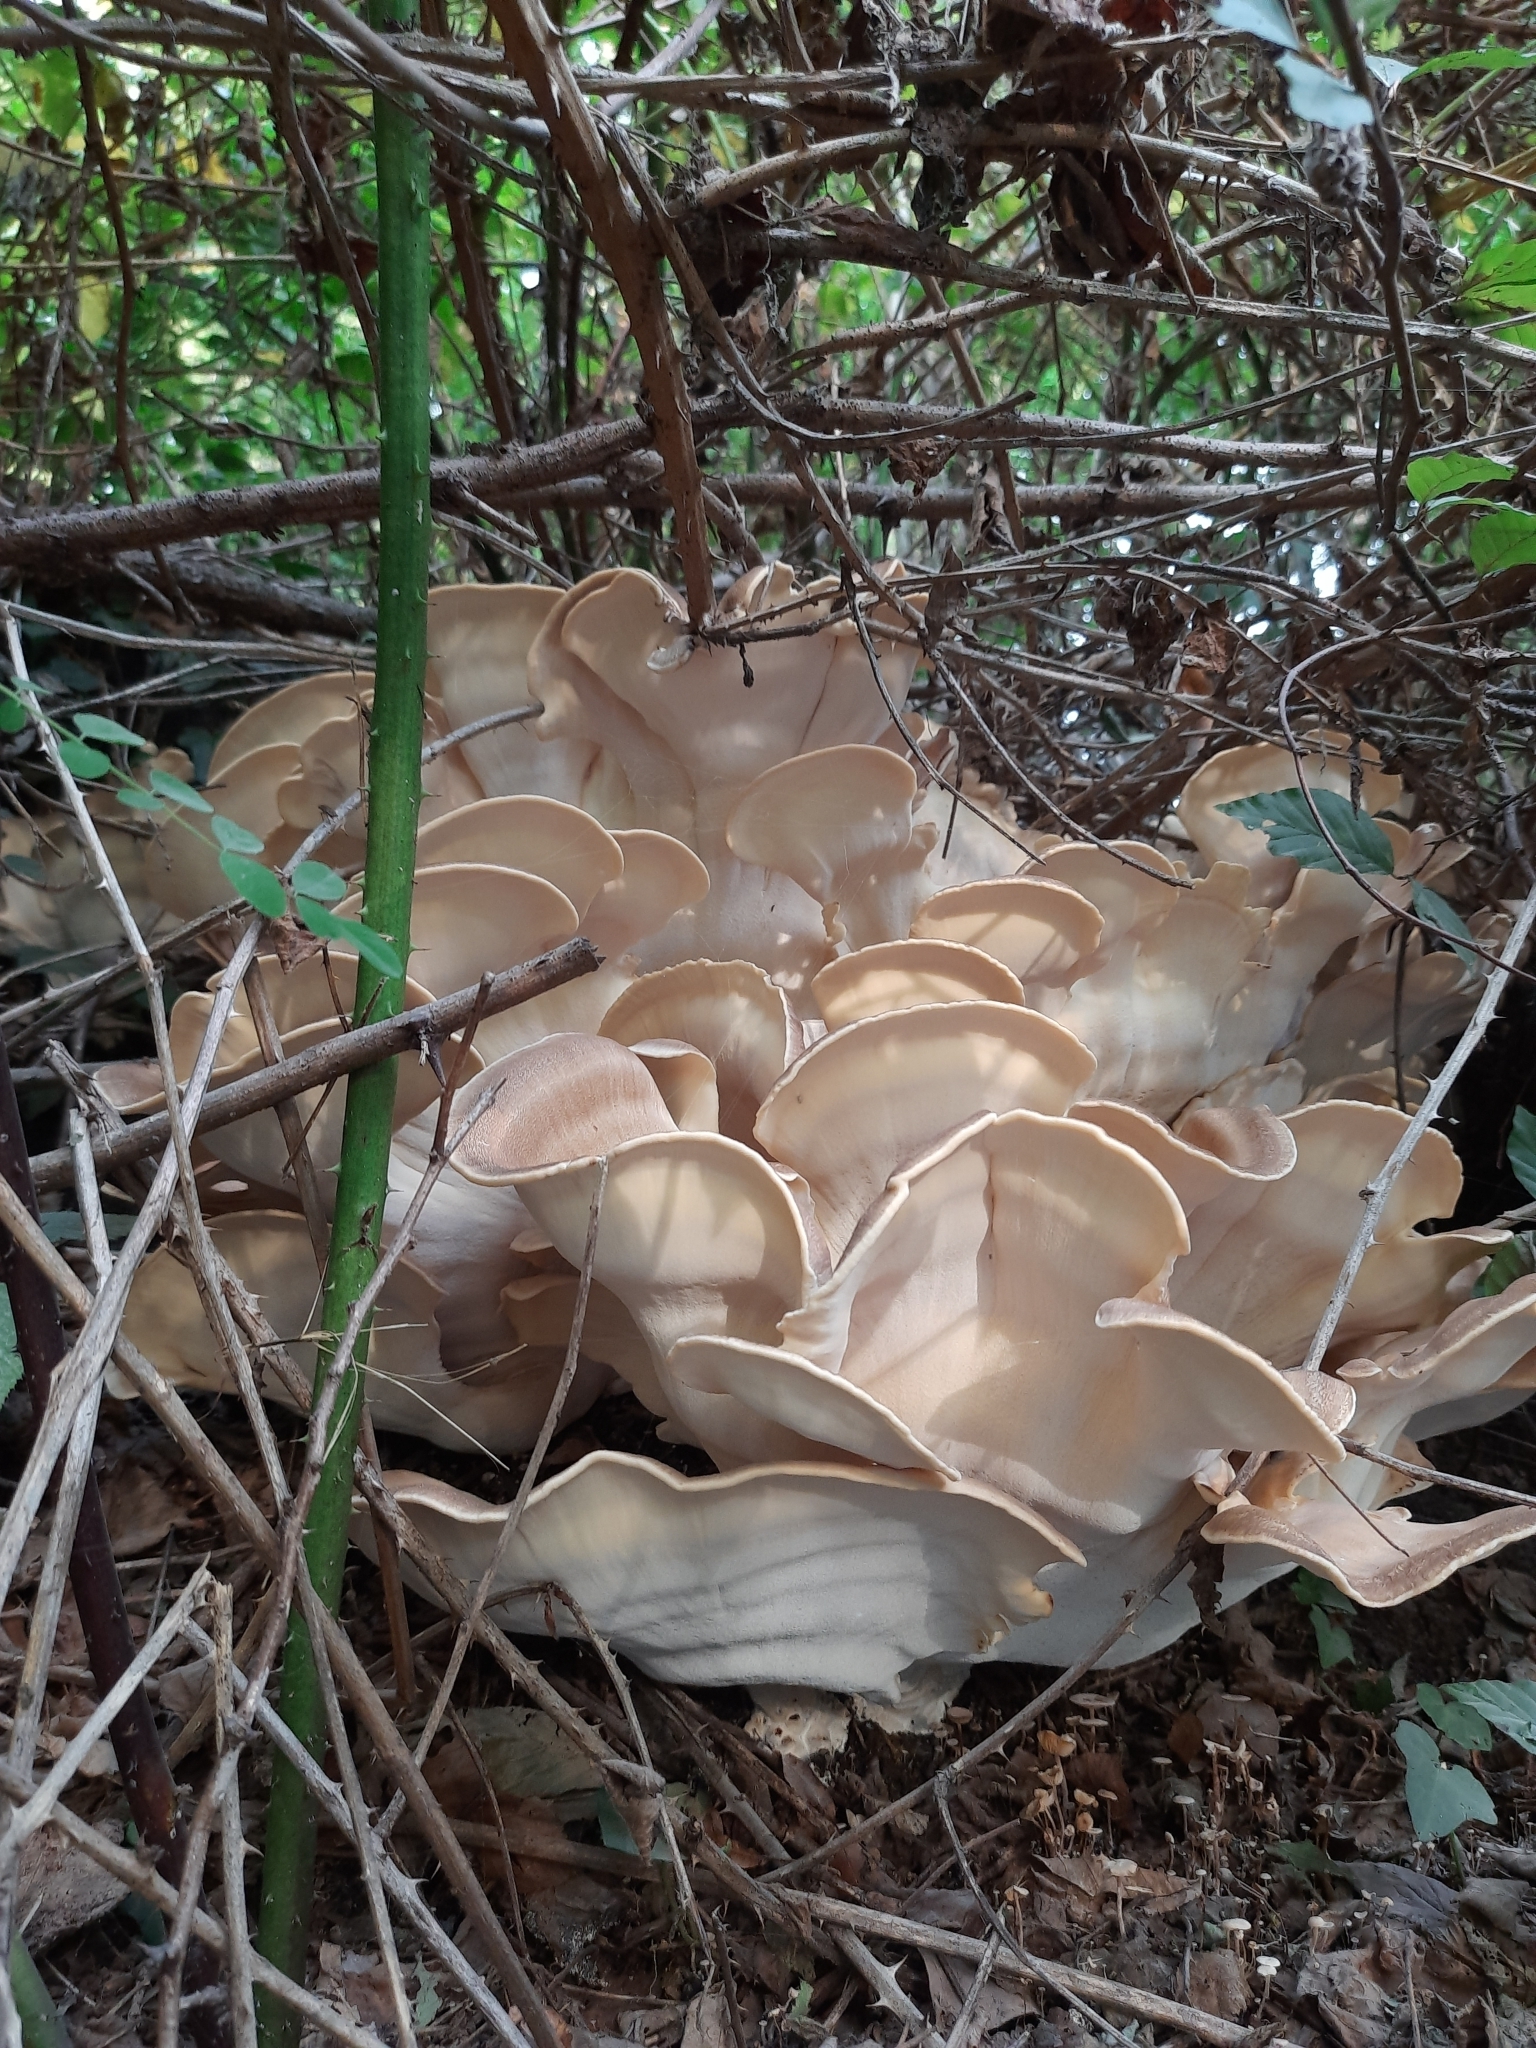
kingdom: Fungi
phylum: Basidiomycota
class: Agaricomycetes
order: Polyporales
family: Meripilaceae
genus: Meripilus
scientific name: Meripilus giganteus
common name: Giant polypore
